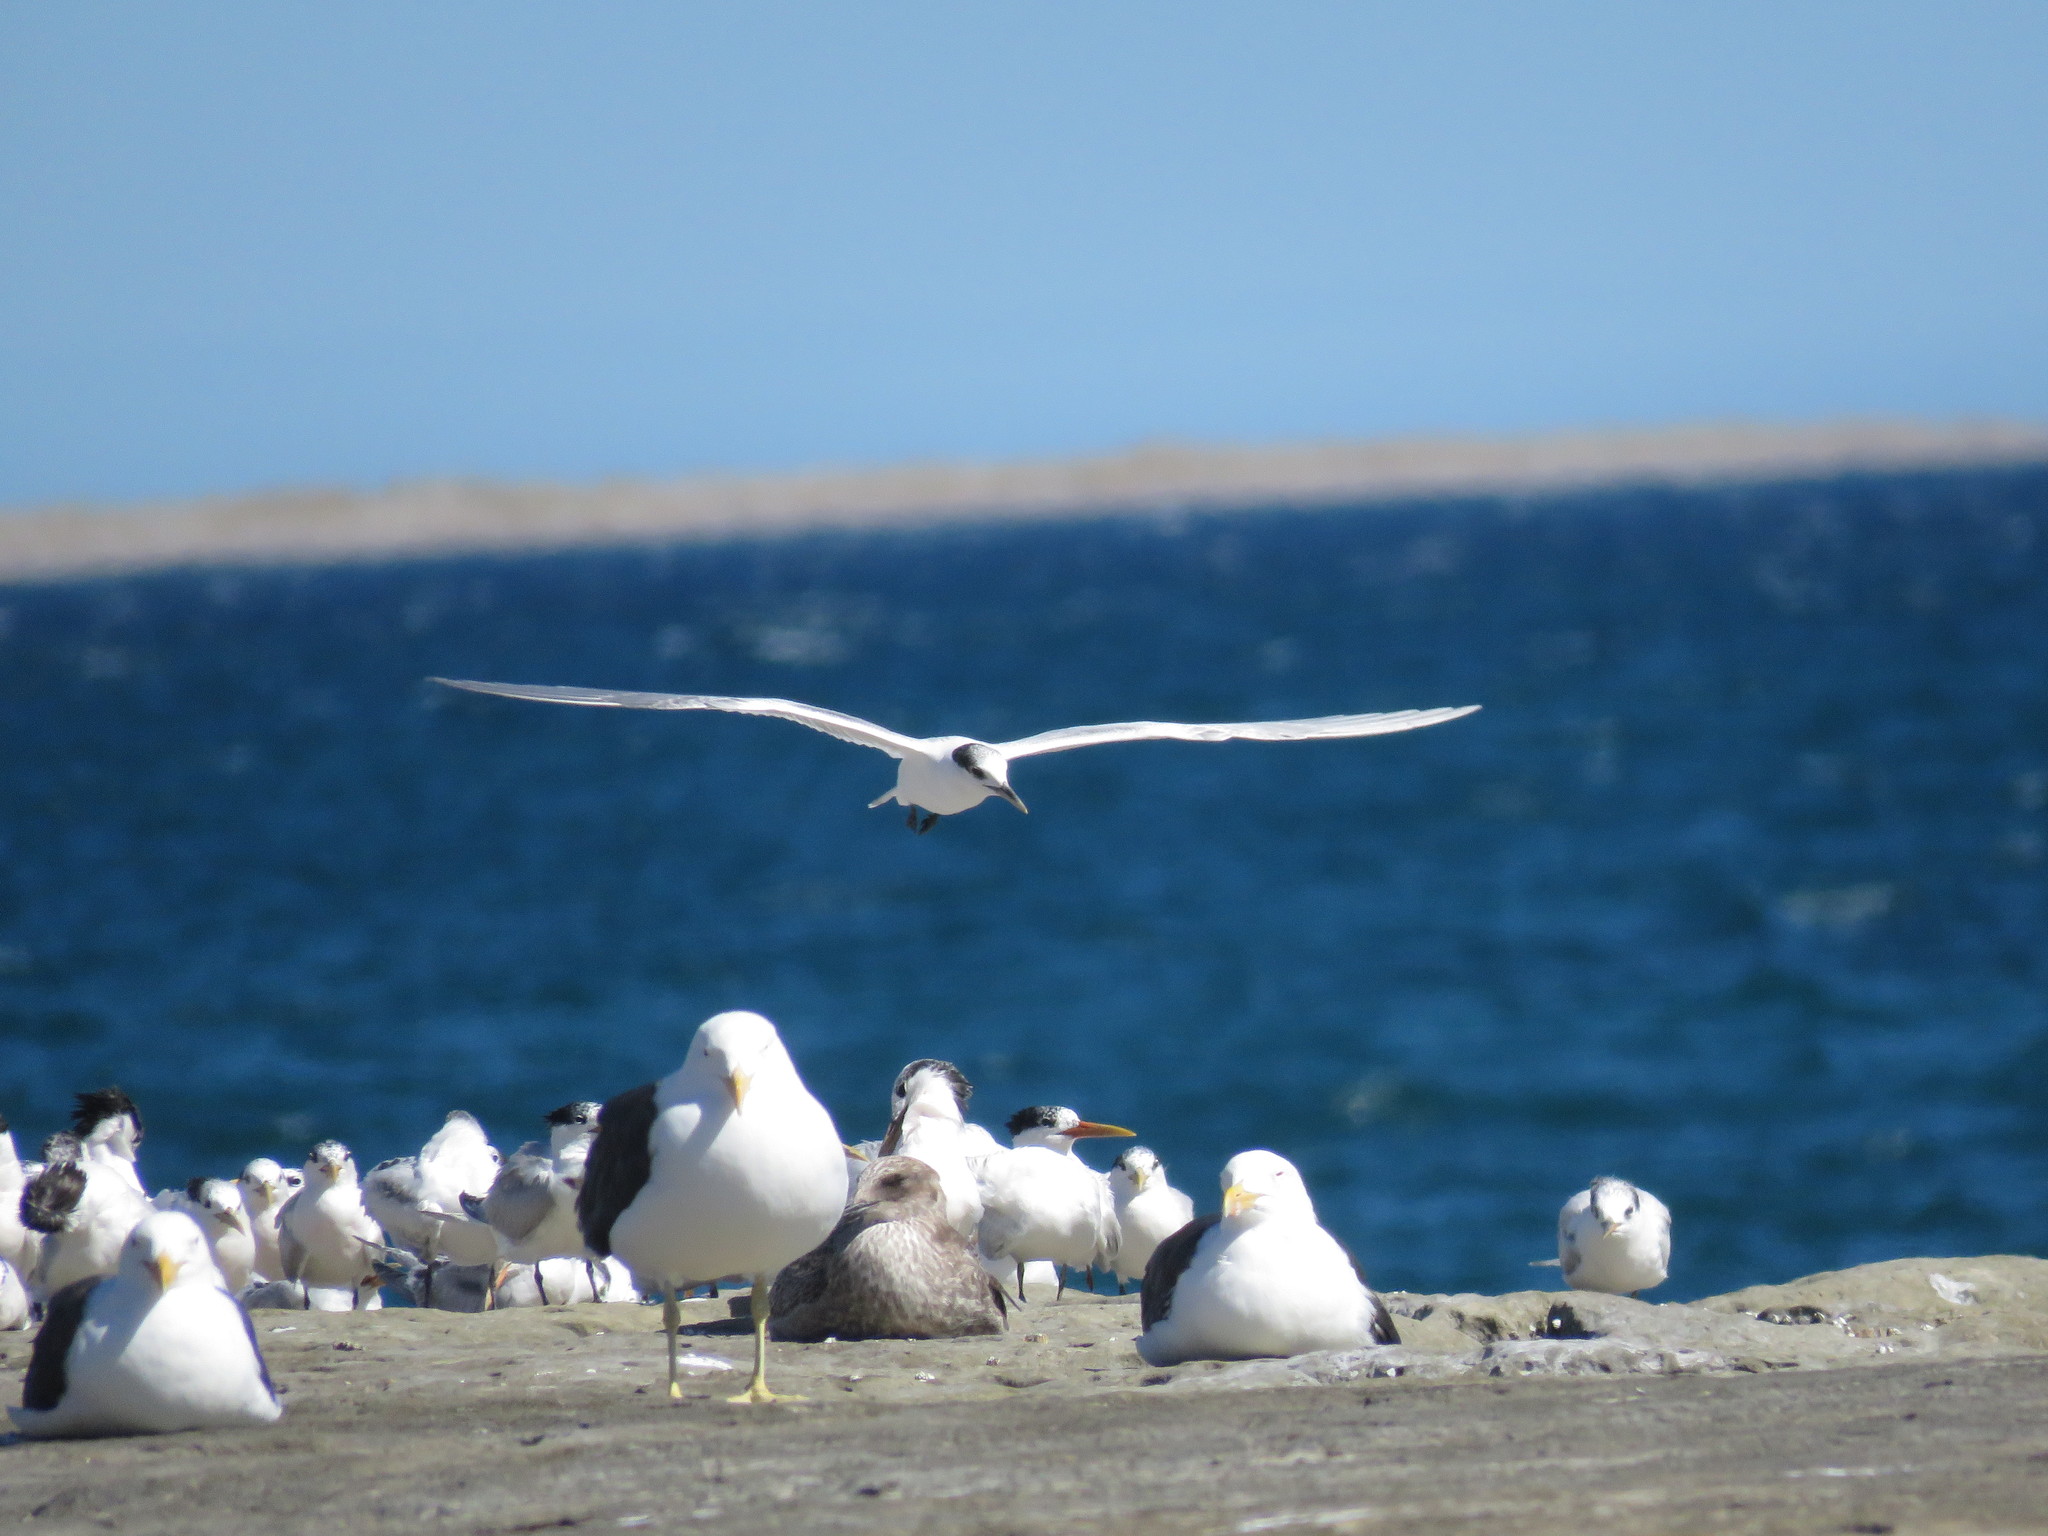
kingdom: Animalia
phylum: Chordata
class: Aves
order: Charadriiformes
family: Laridae
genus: Thalasseus
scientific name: Thalasseus sandvicensis
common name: Sandwich tern
